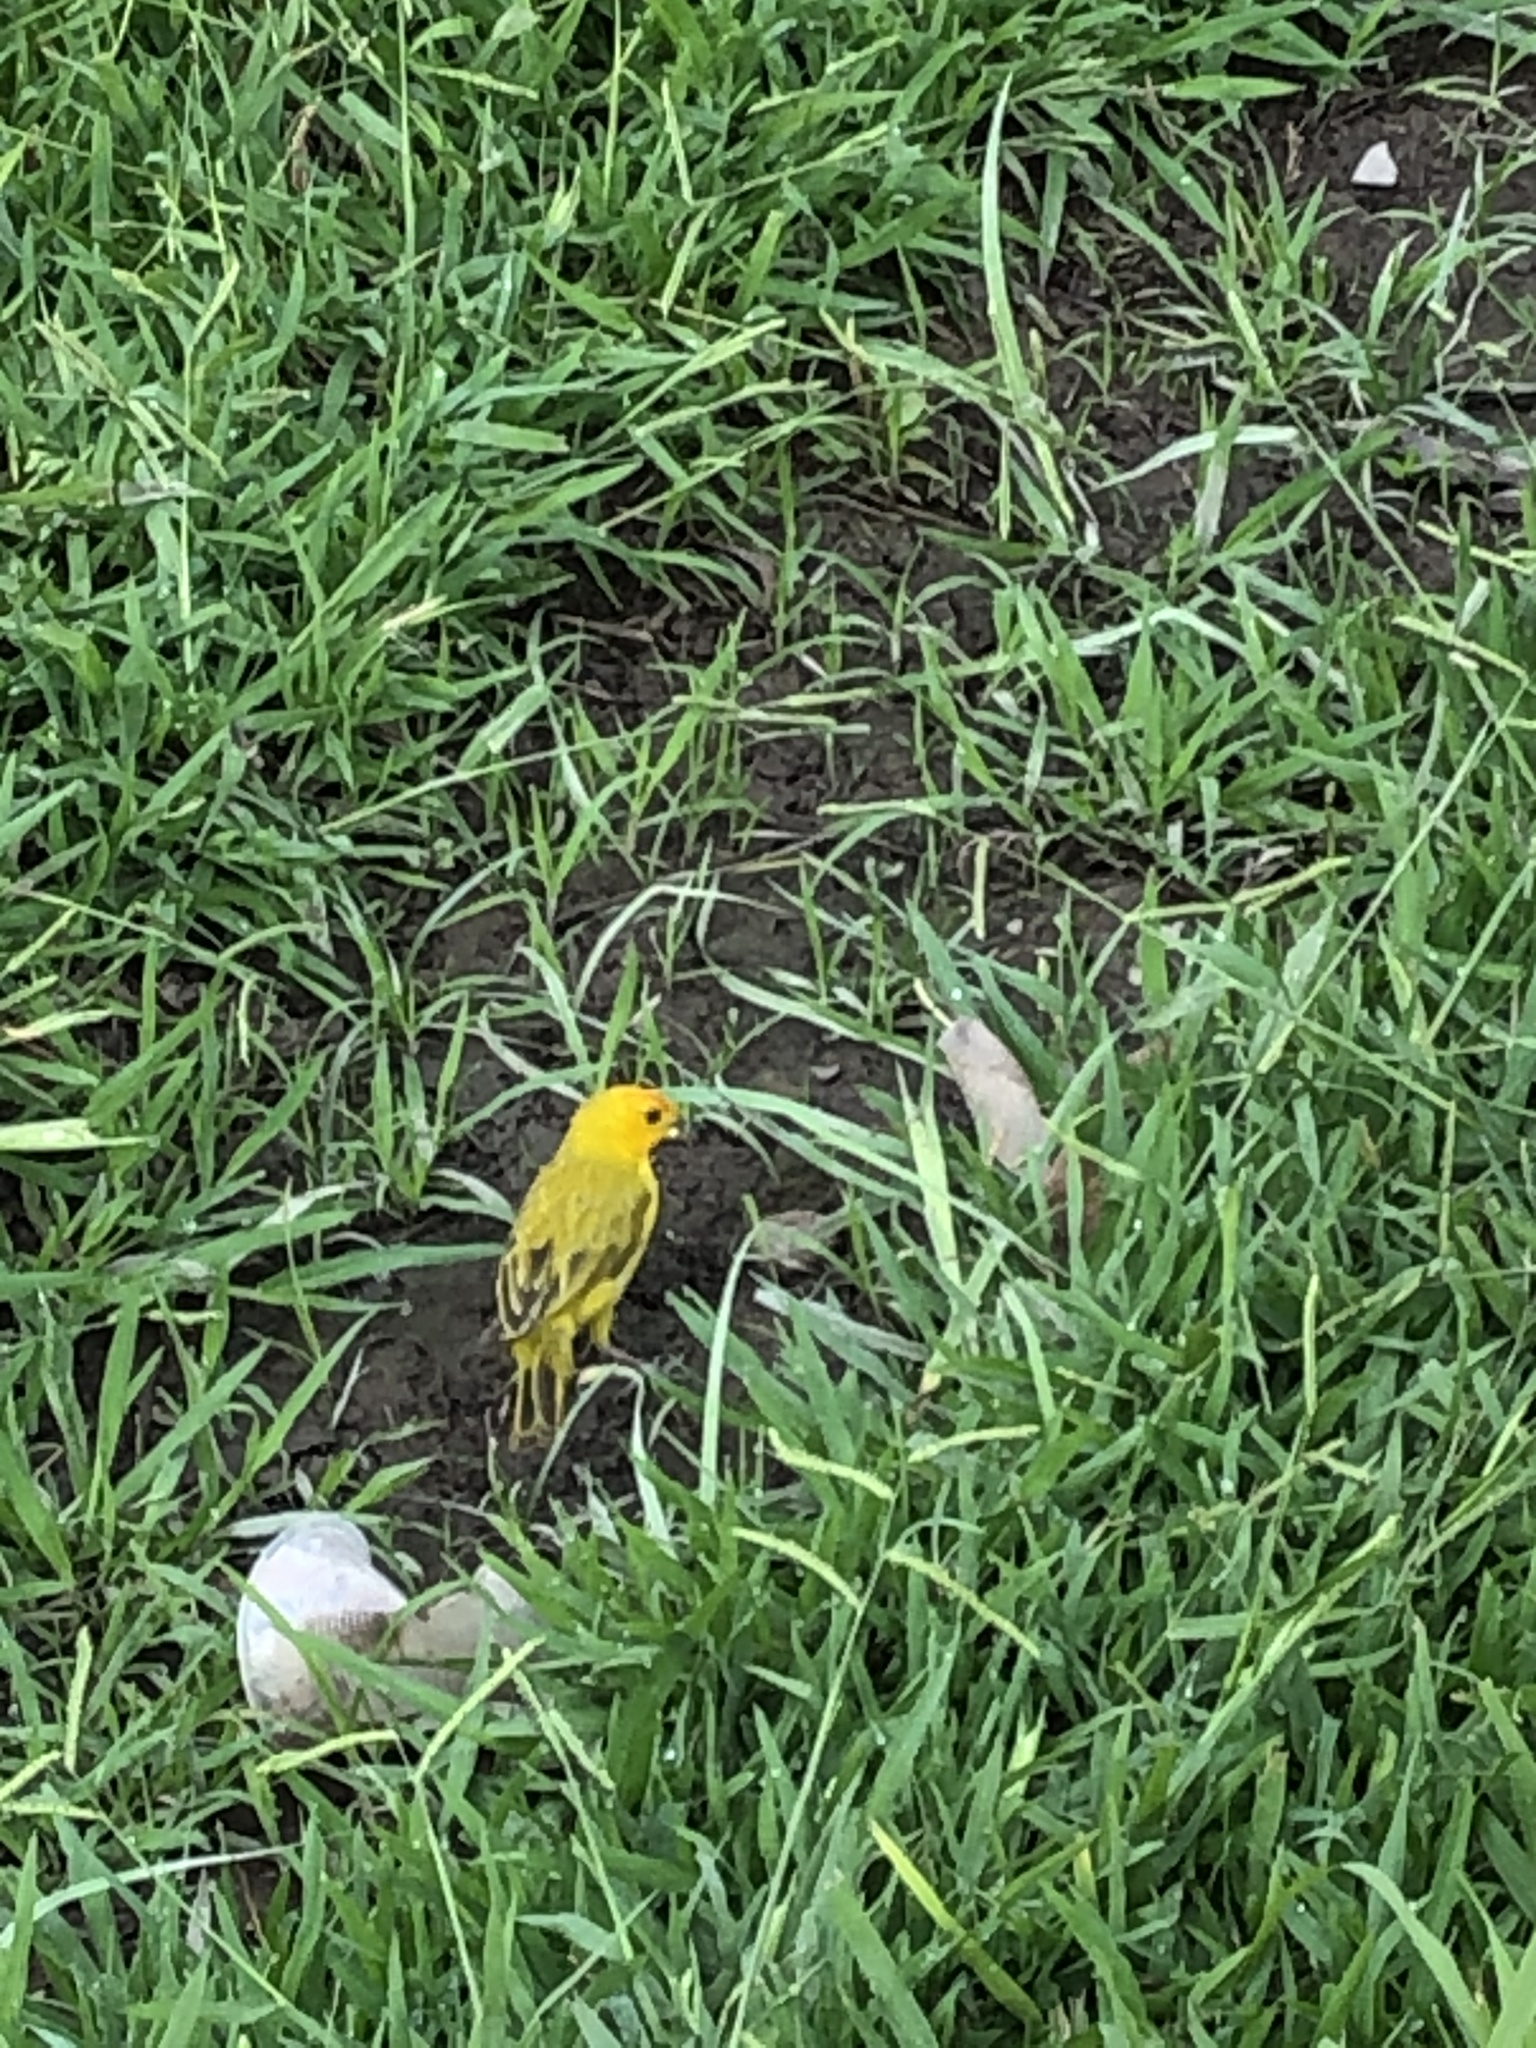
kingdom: Animalia
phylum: Chordata
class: Aves
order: Passeriformes
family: Thraupidae
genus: Sicalis
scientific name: Sicalis flaveola
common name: Saffron finch
